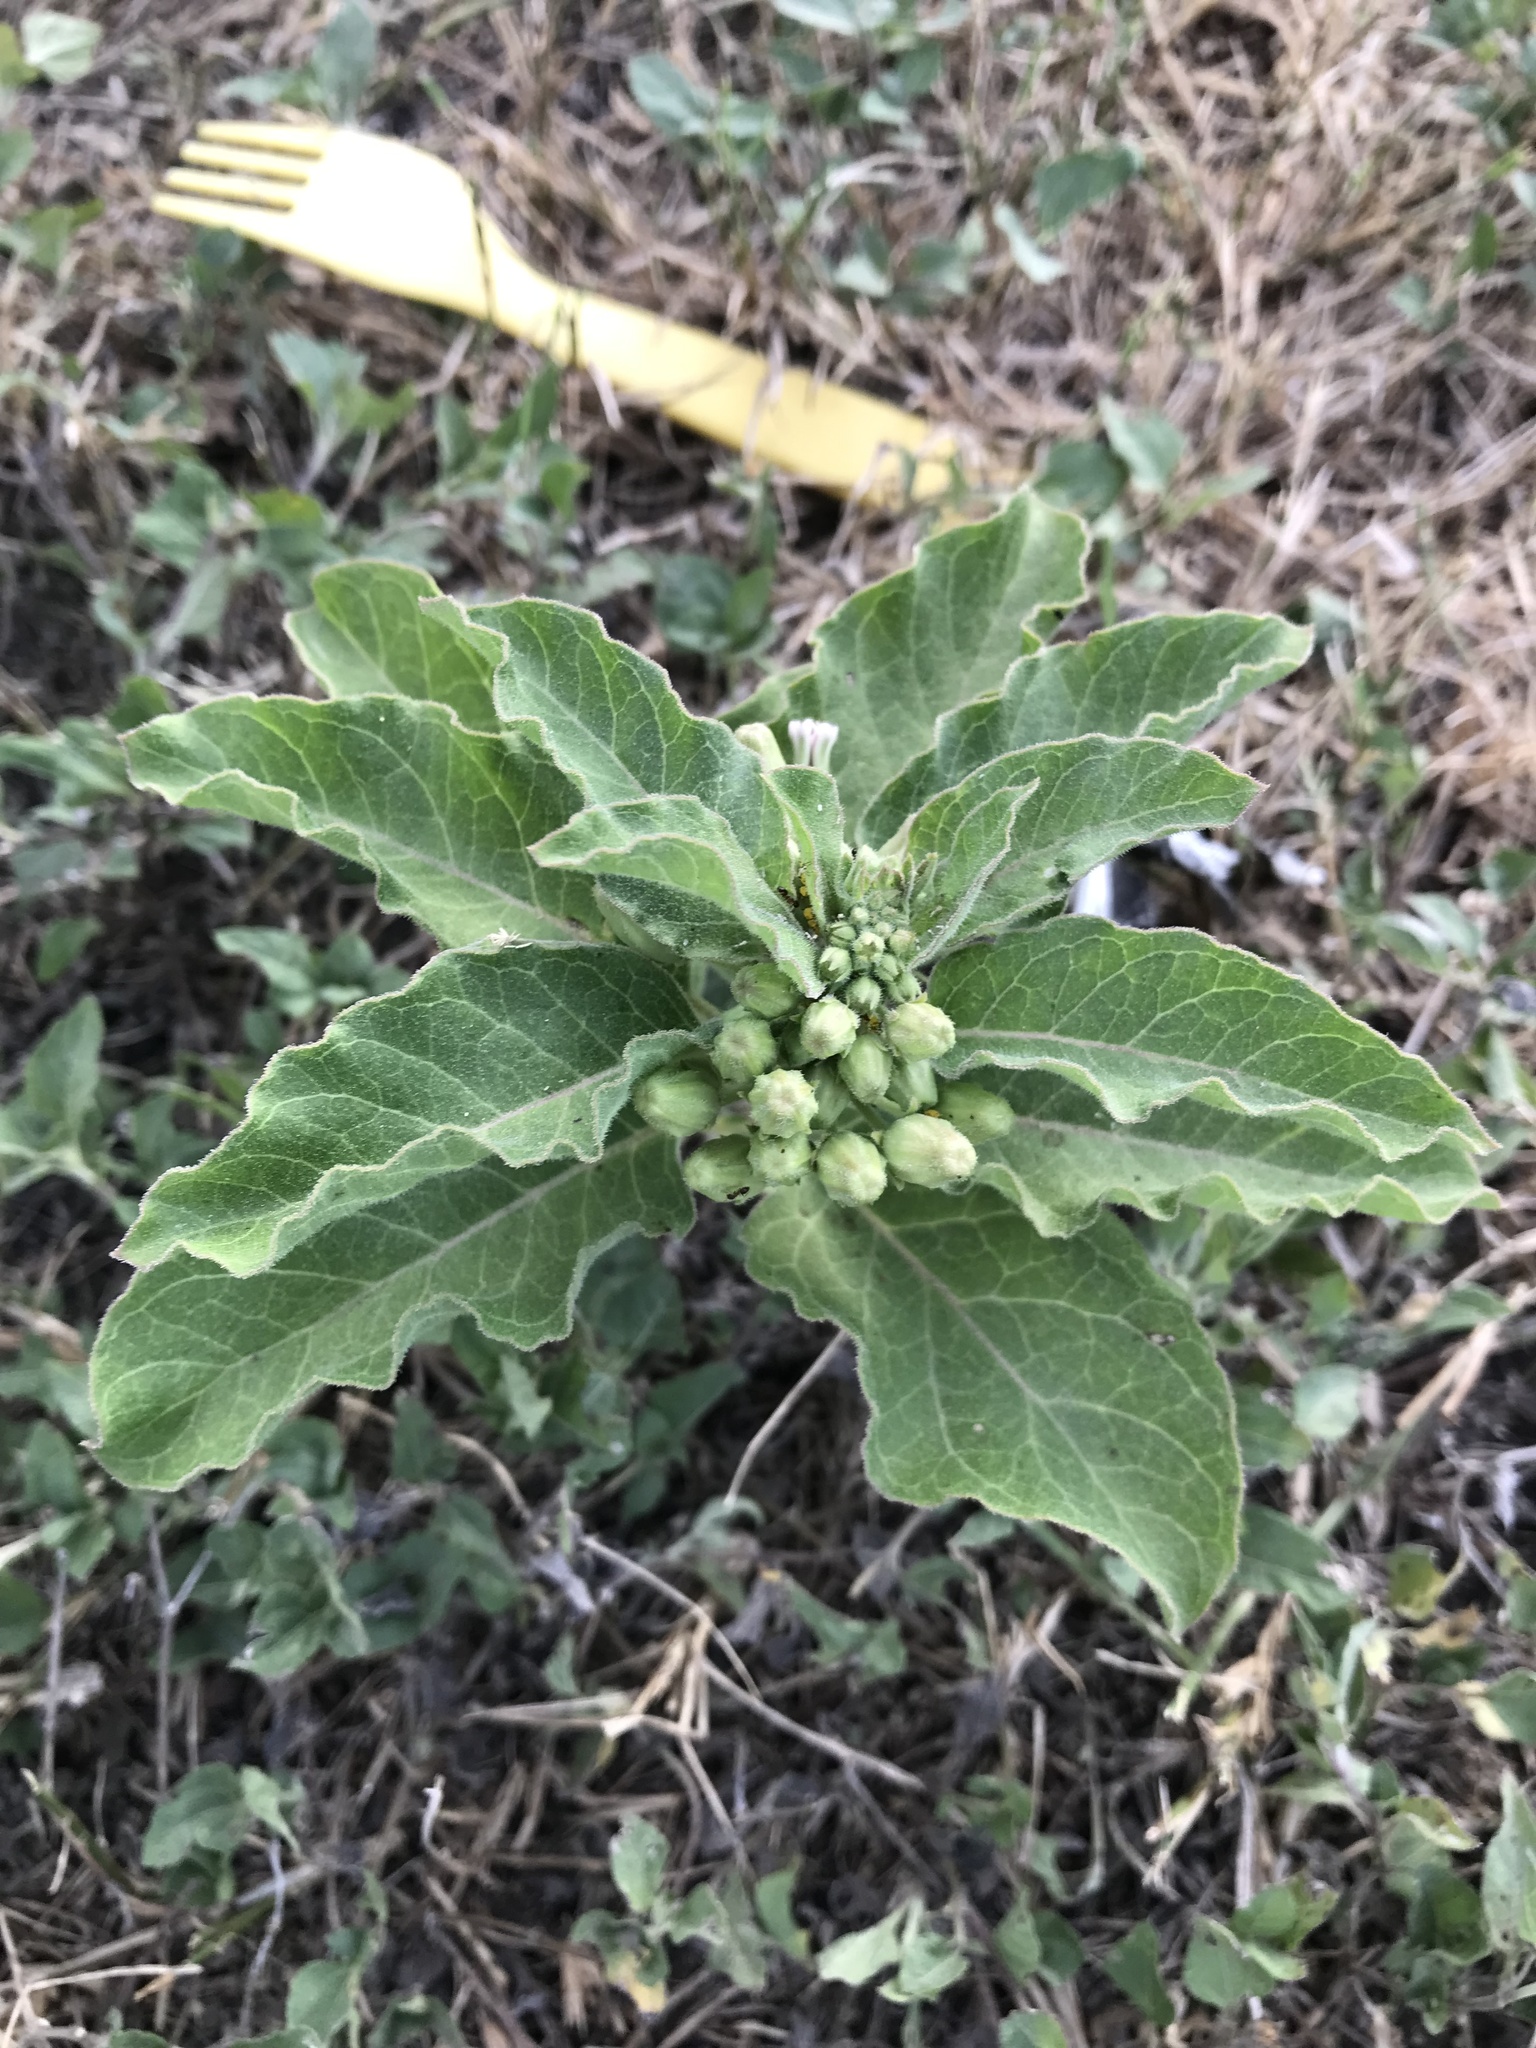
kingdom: Plantae
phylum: Tracheophyta
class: Magnoliopsida
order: Gentianales
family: Apocynaceae
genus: Asclepias
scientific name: Asclepias oenotheroides
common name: Zizotes milkweed
